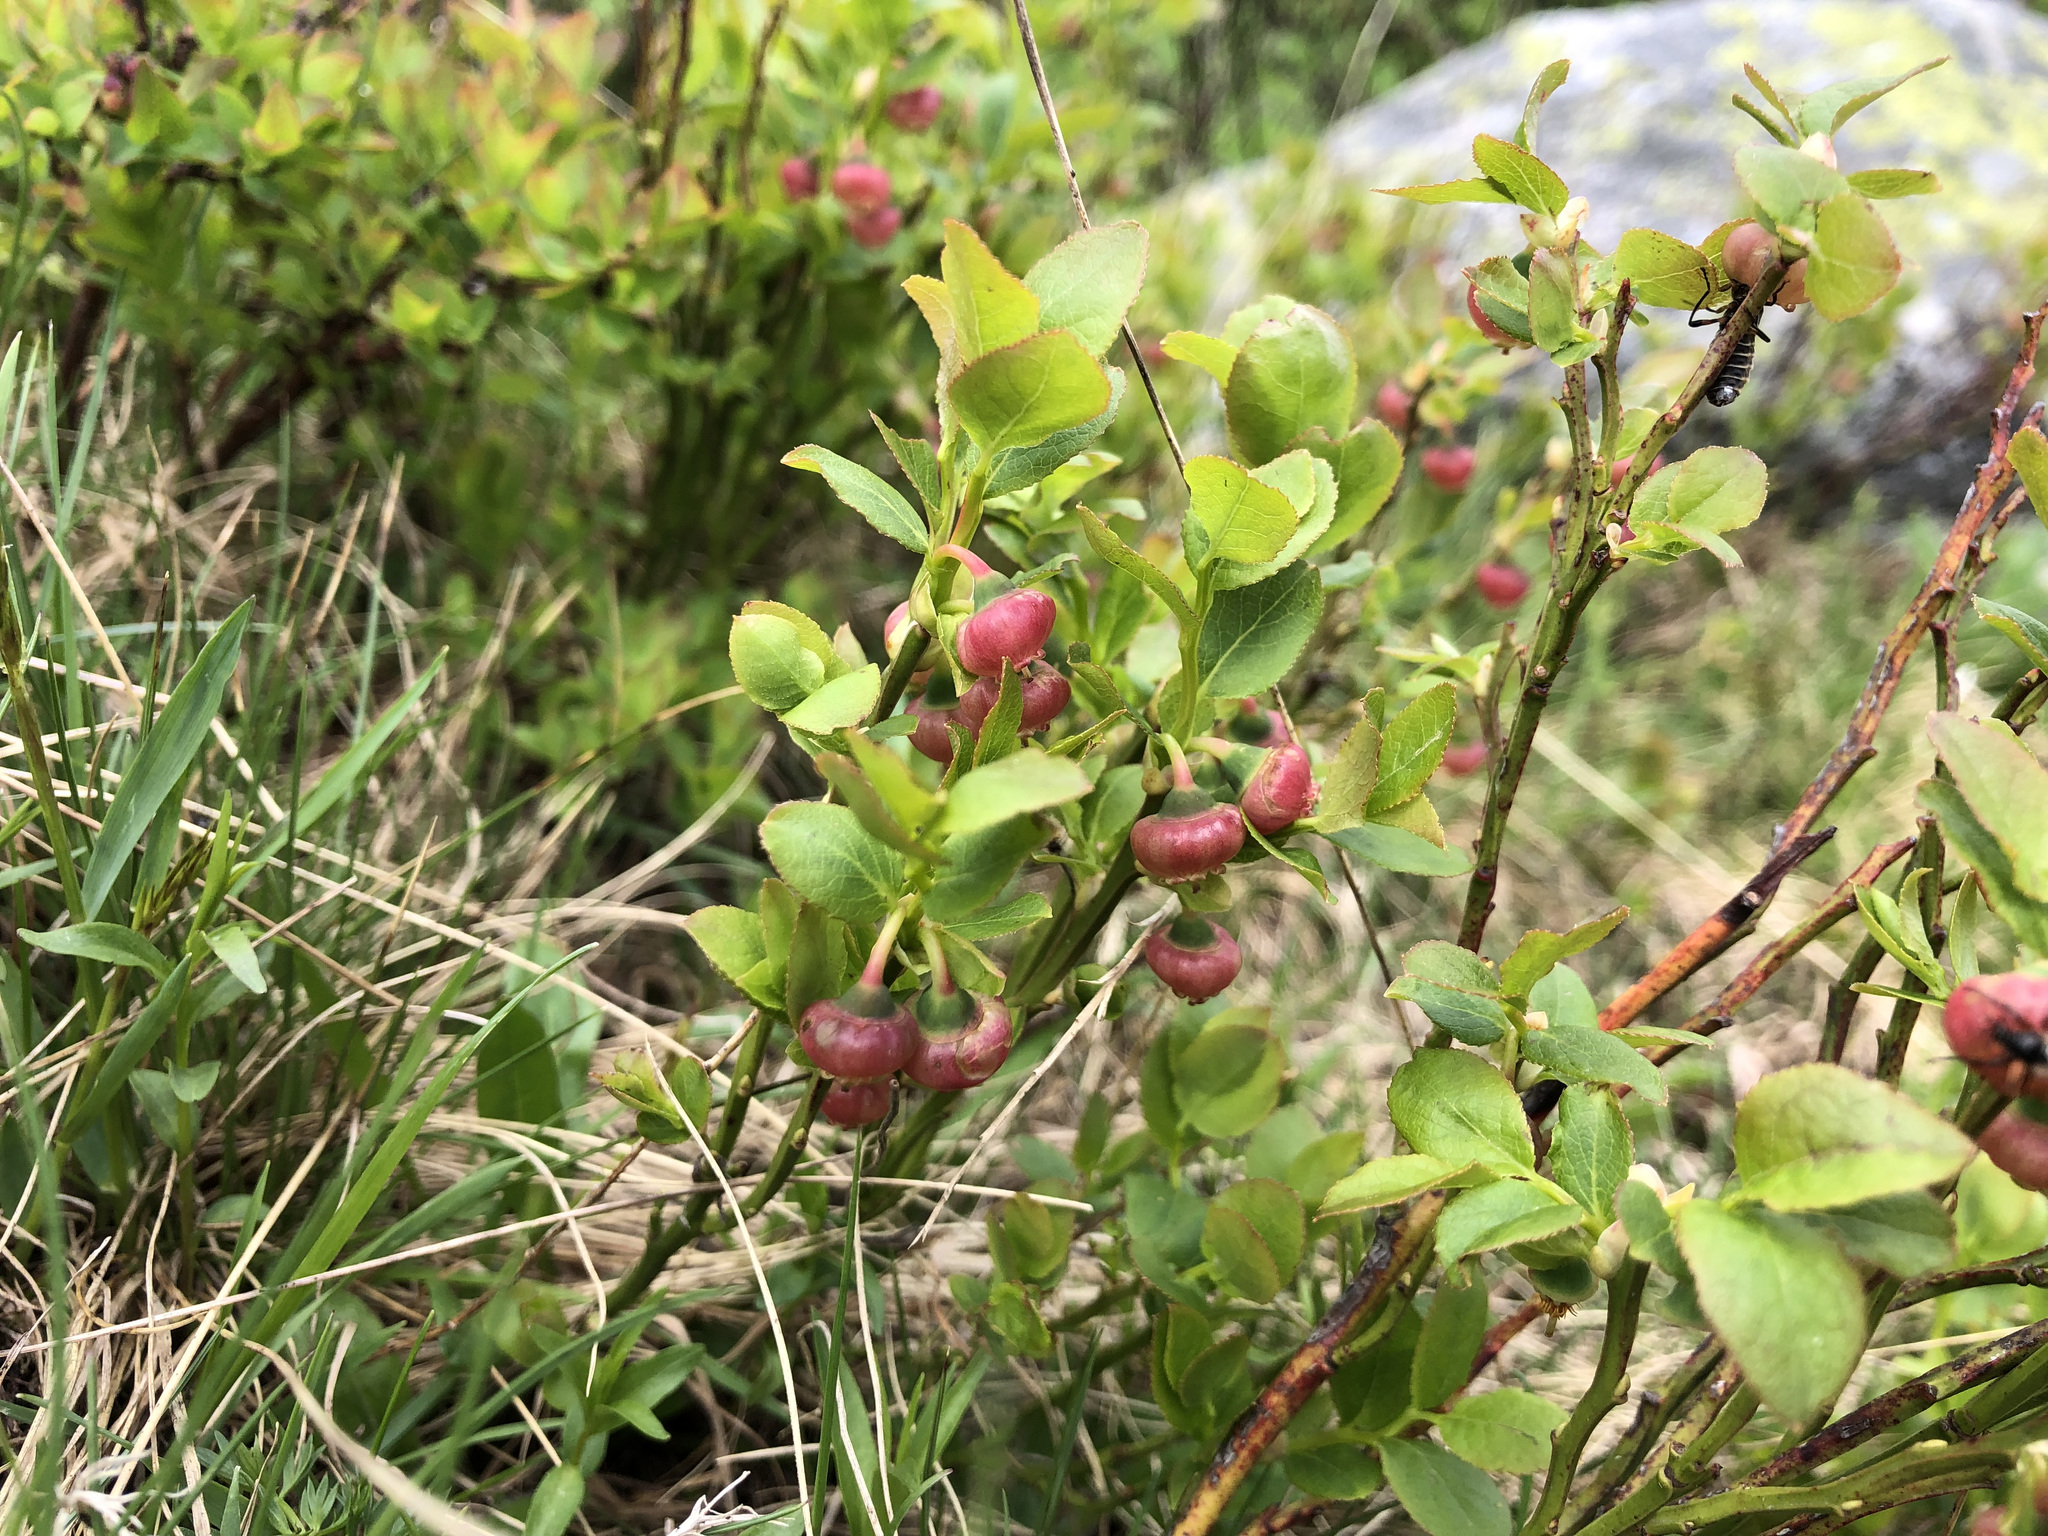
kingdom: Plantae
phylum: Tracheophyta
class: Magnoliopsida
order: Ericales
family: Ericaceae
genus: Vaccinium
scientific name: Vaccinium myrtillus
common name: Bilberry
